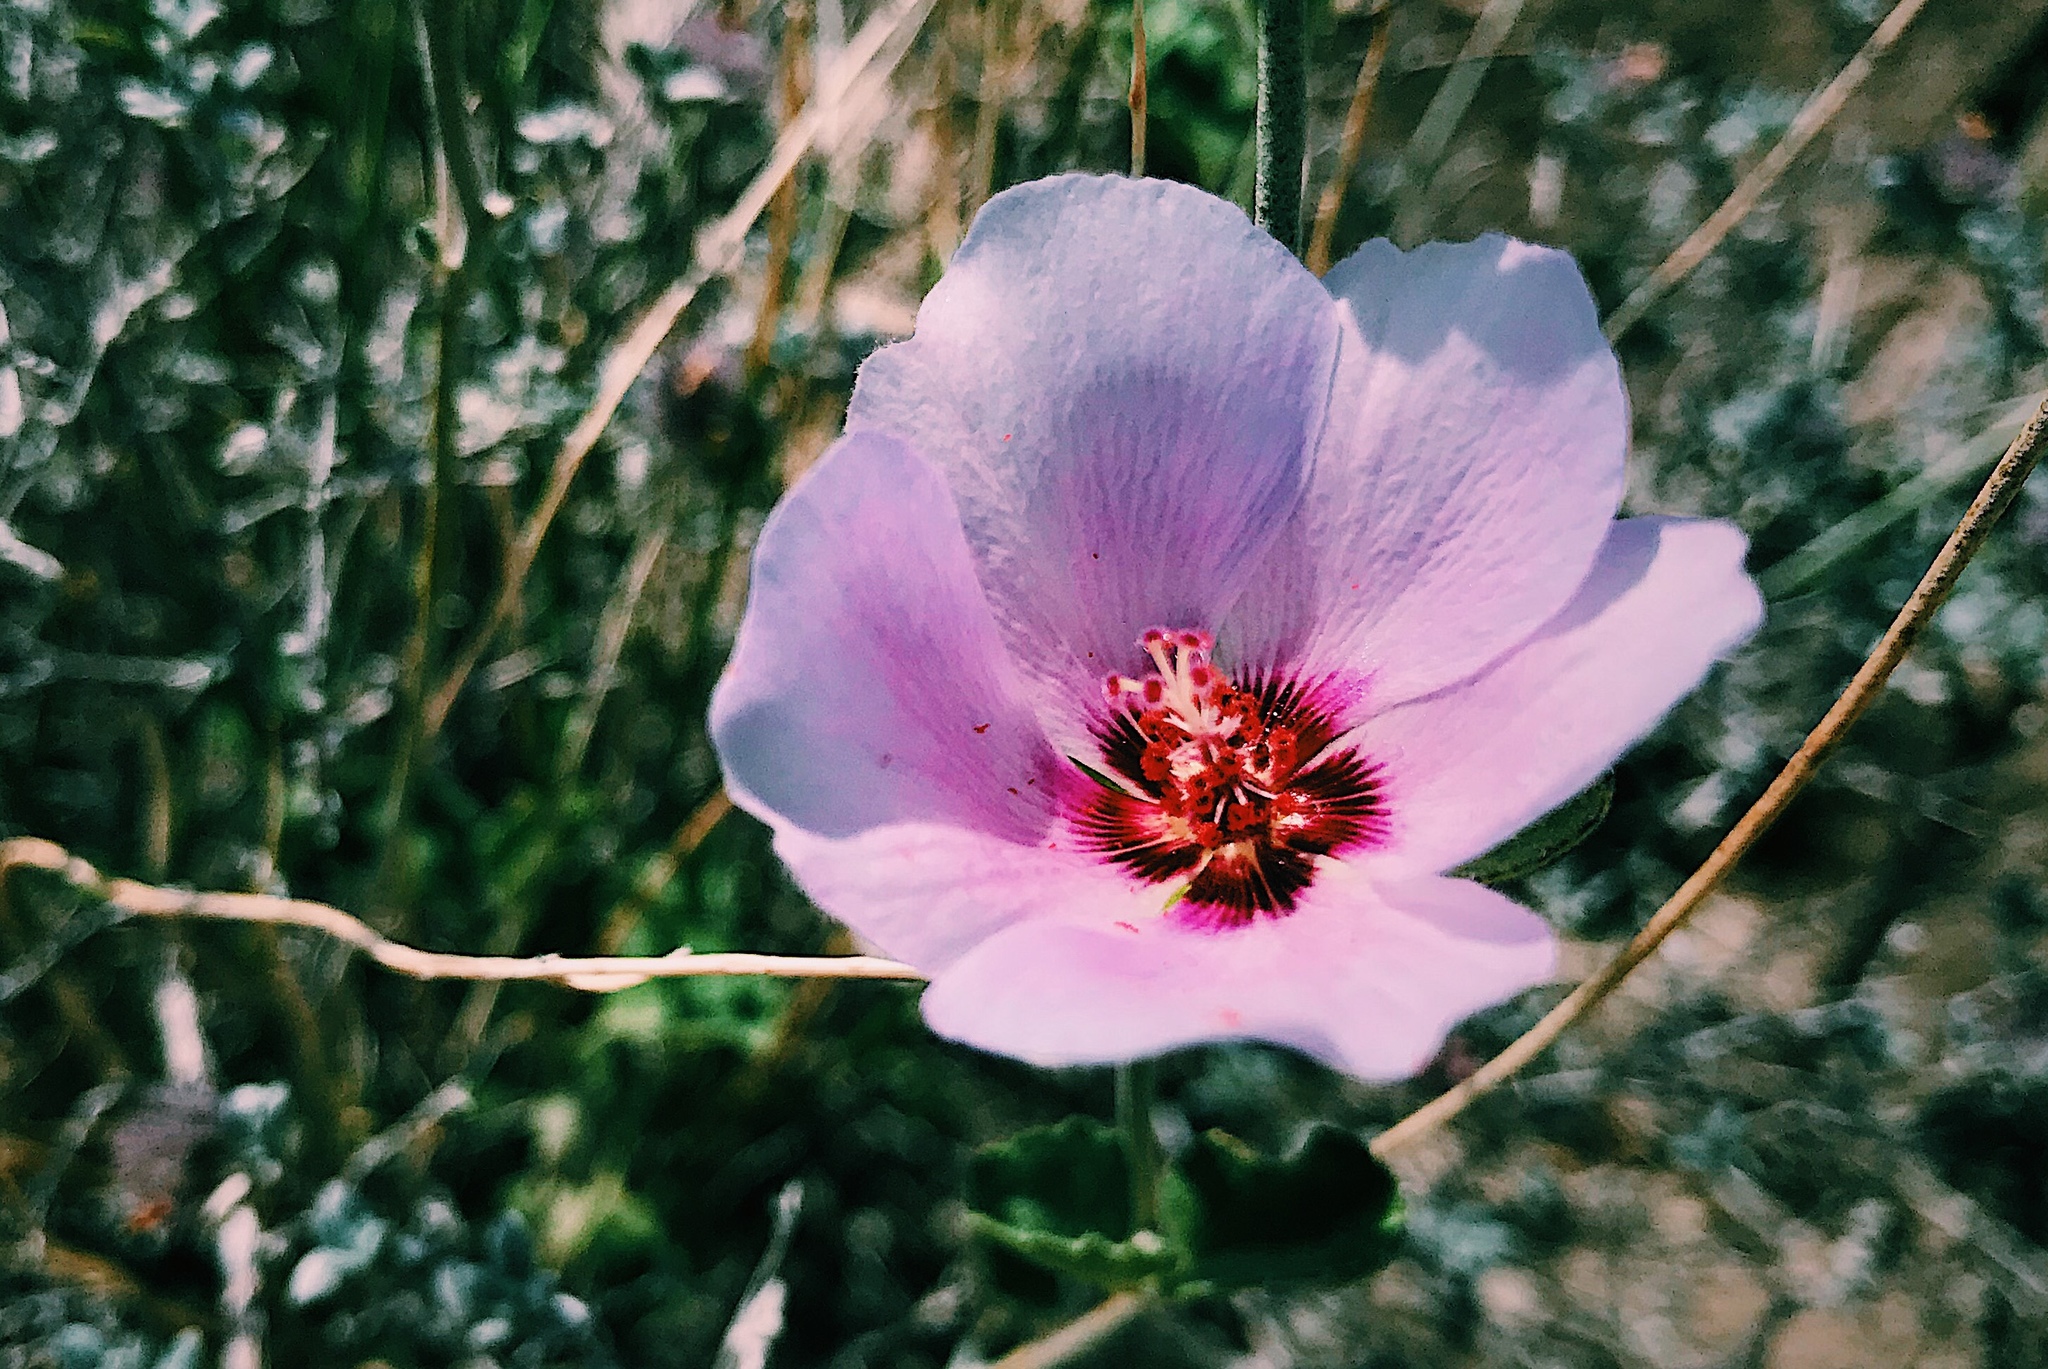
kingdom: Plantae
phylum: Tracheophyta
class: Magnoliopsida
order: Malvales
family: Malvaceae
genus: Hibiscus
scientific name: Hibiscus denudatus
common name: Paleface
